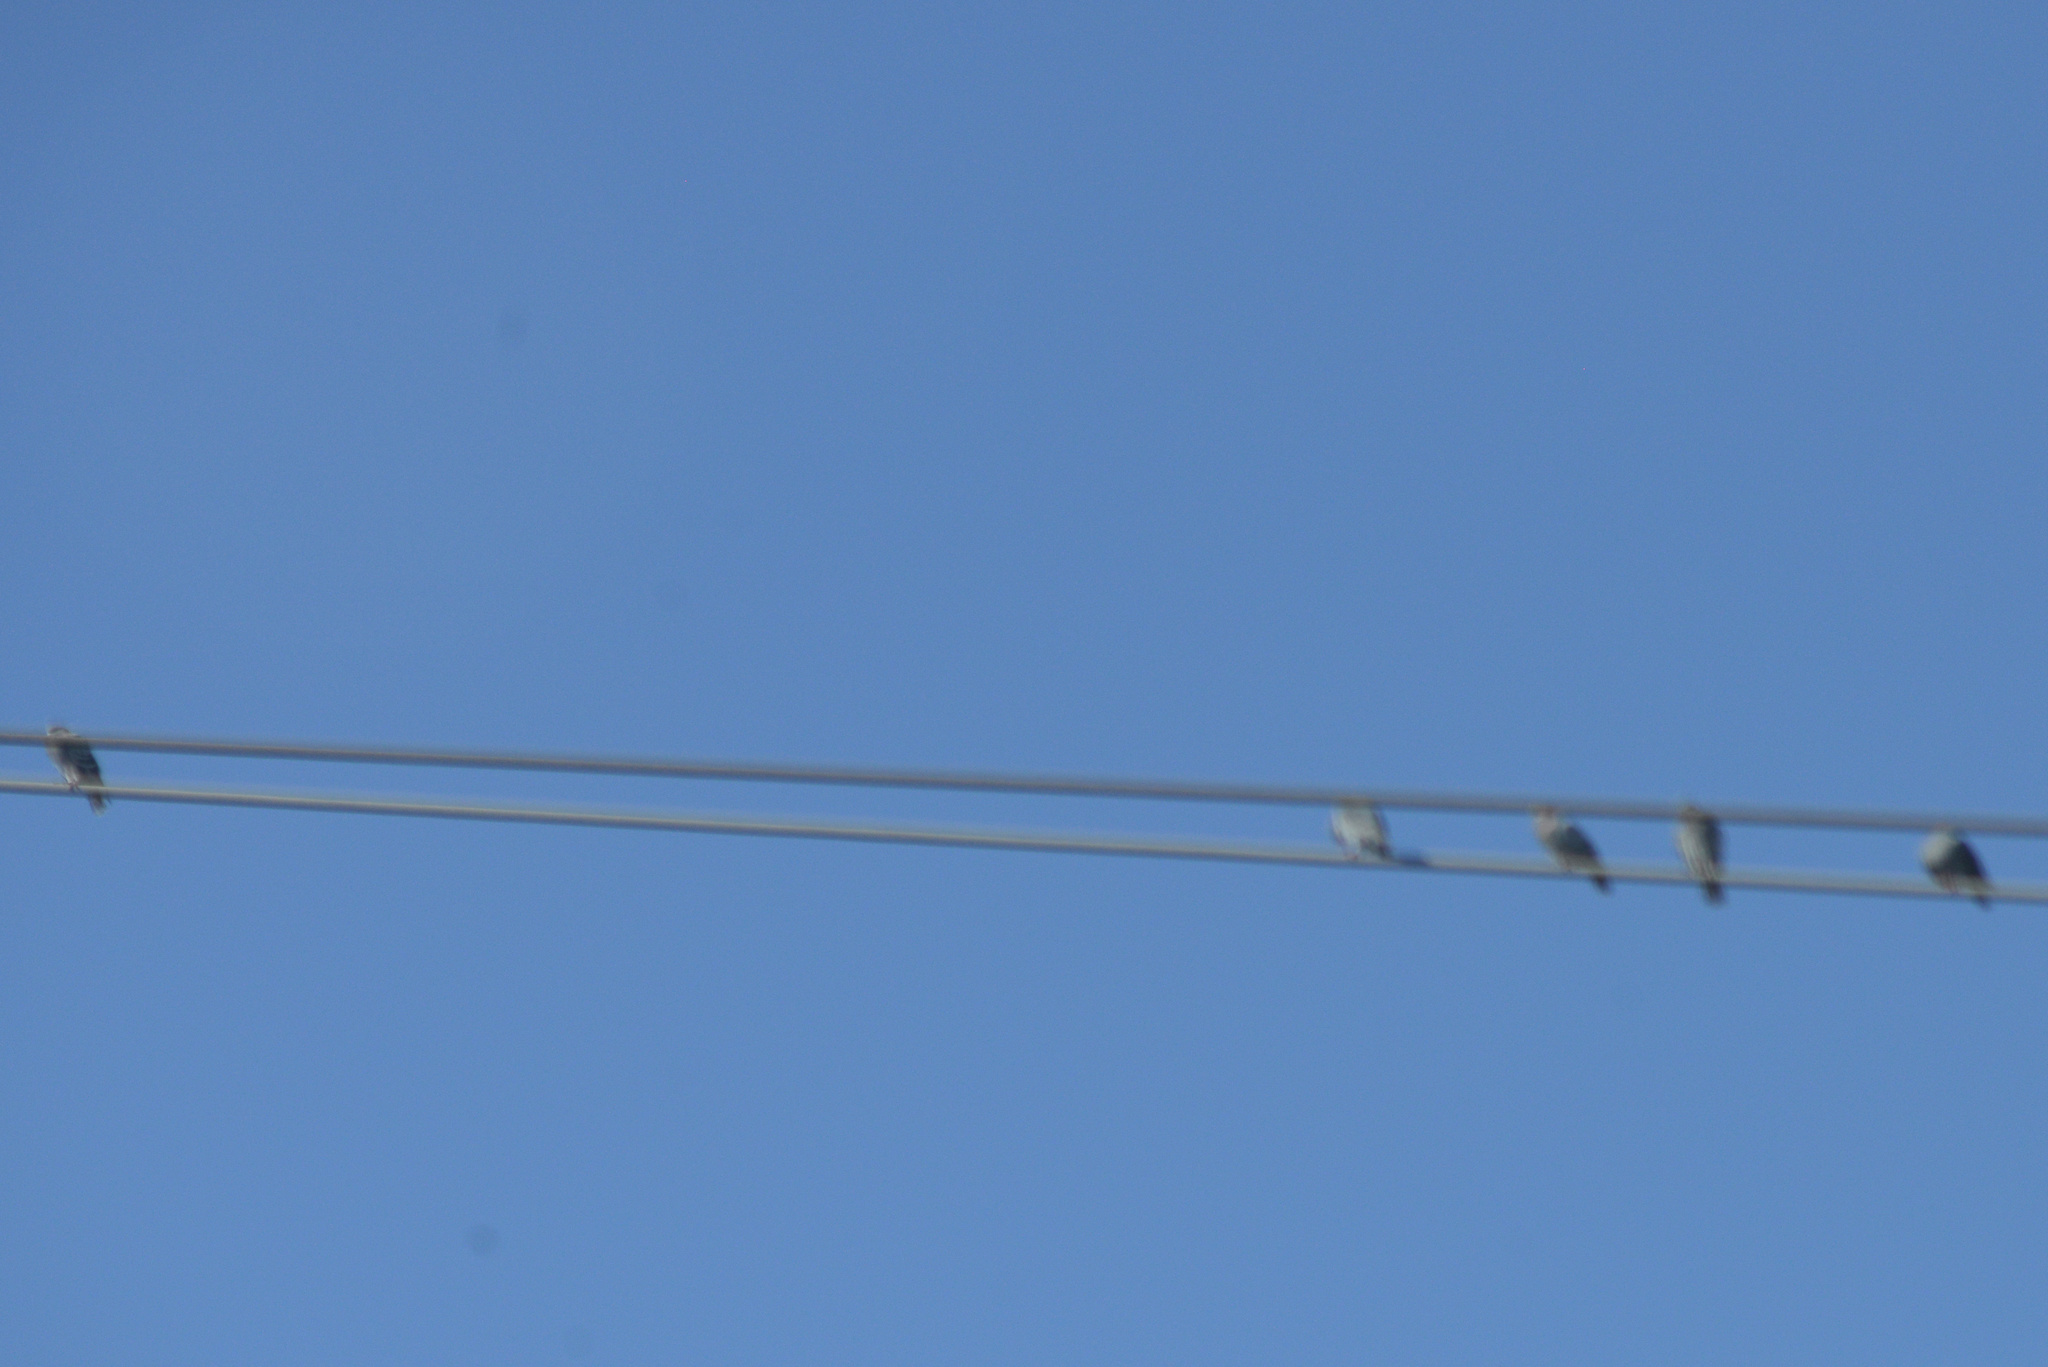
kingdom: Animalia
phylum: Chordata
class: Aves
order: Columbiformes
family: Columbidae
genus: Columba
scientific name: Columba livia
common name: Rock pigeon
